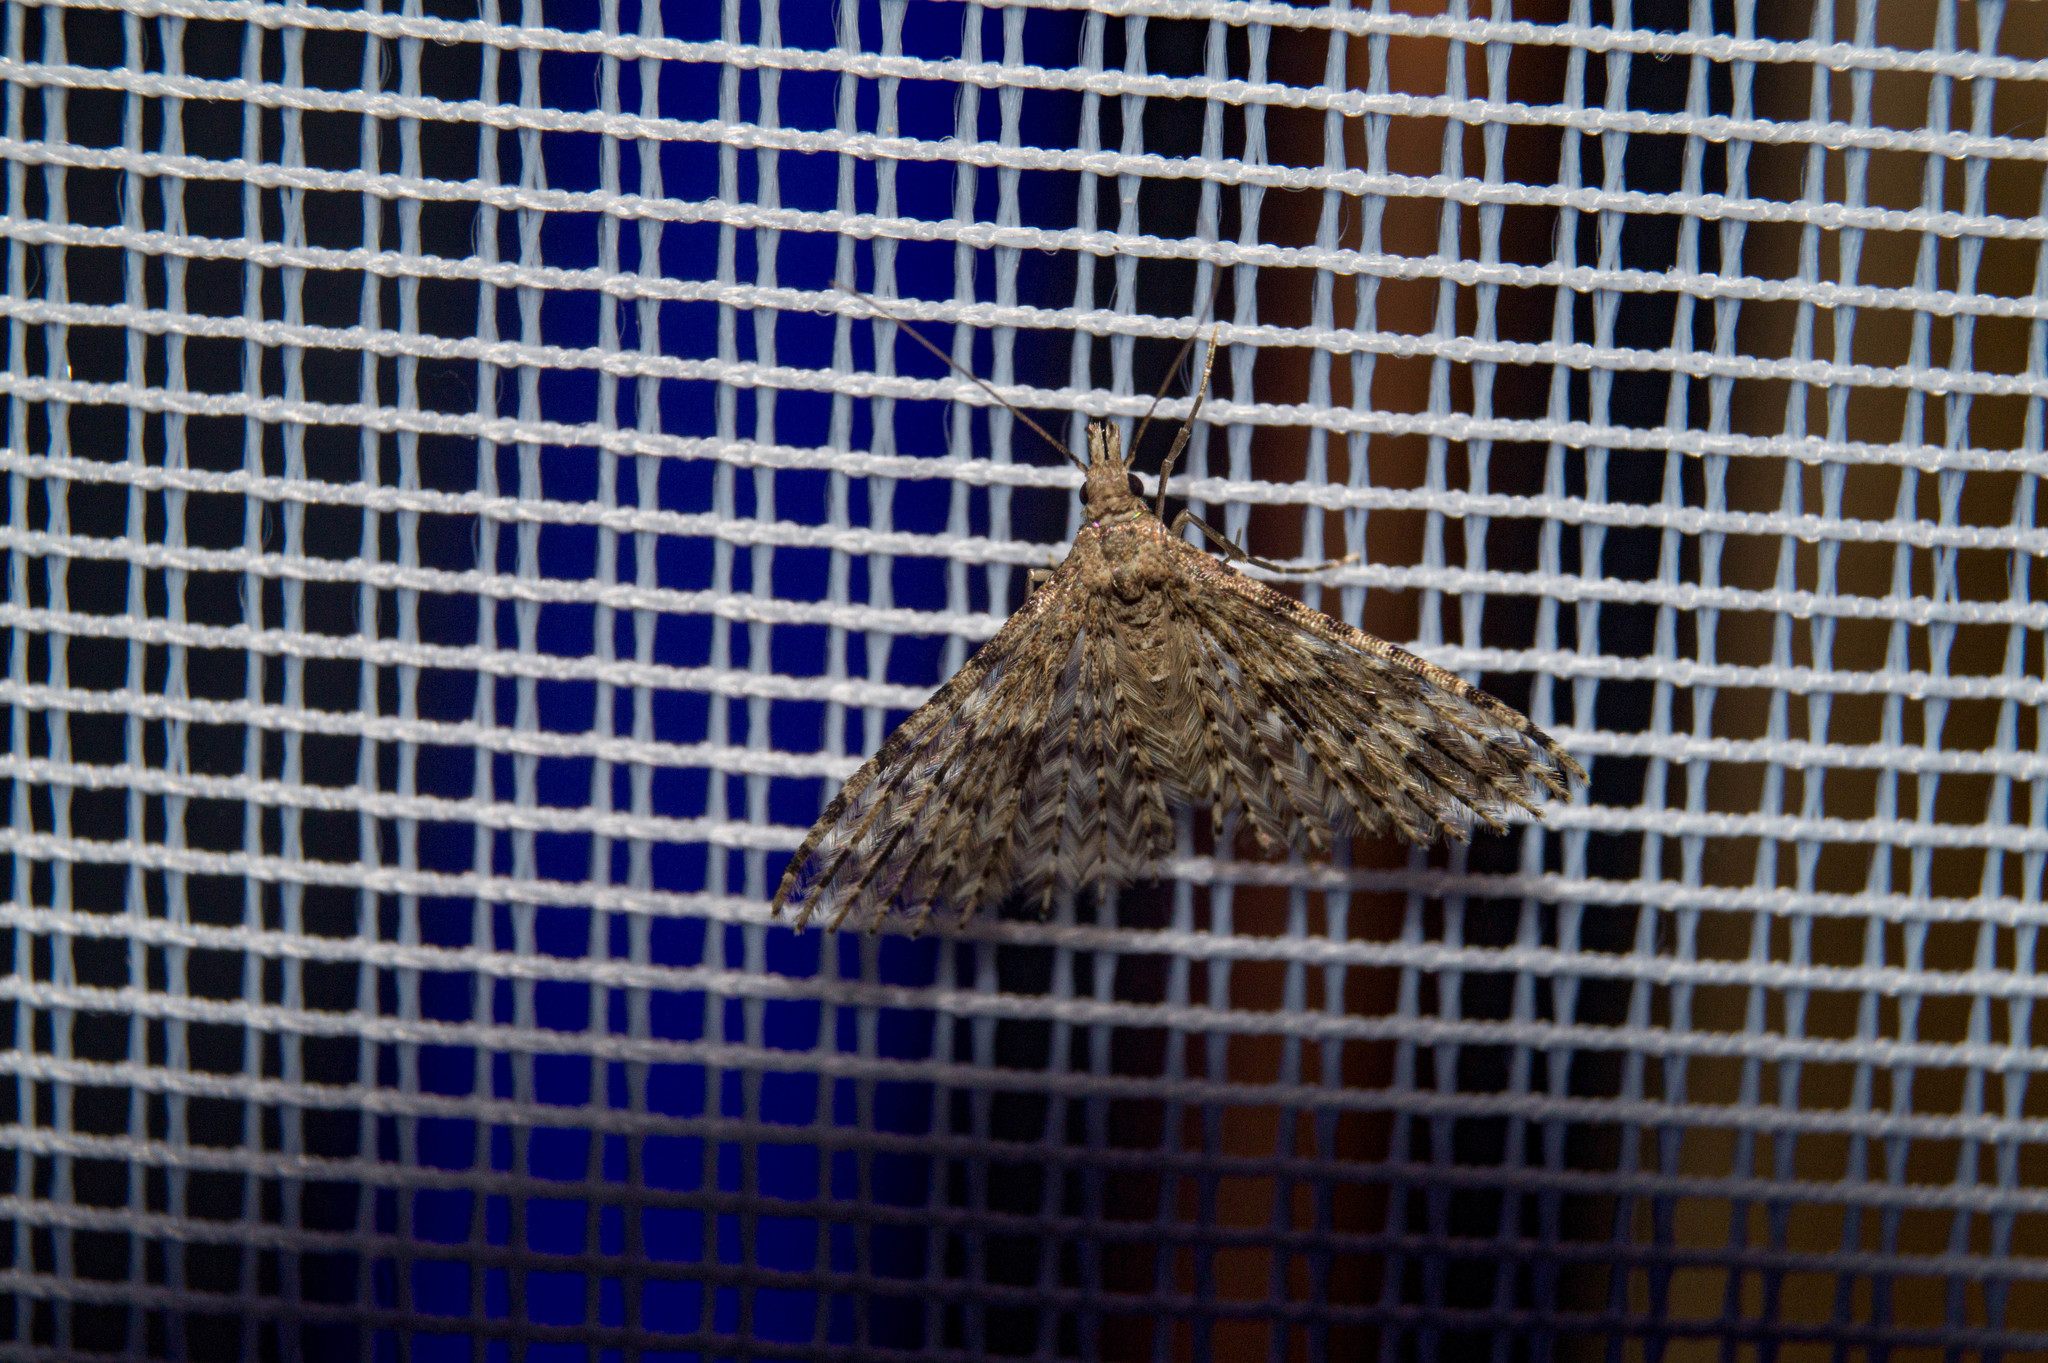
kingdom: Animalia
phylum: Arthropoda
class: Insecta
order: Lepidoptera
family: Alucitidae
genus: Alucita
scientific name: Alucita hexadactyla
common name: Twenty-plume moth
